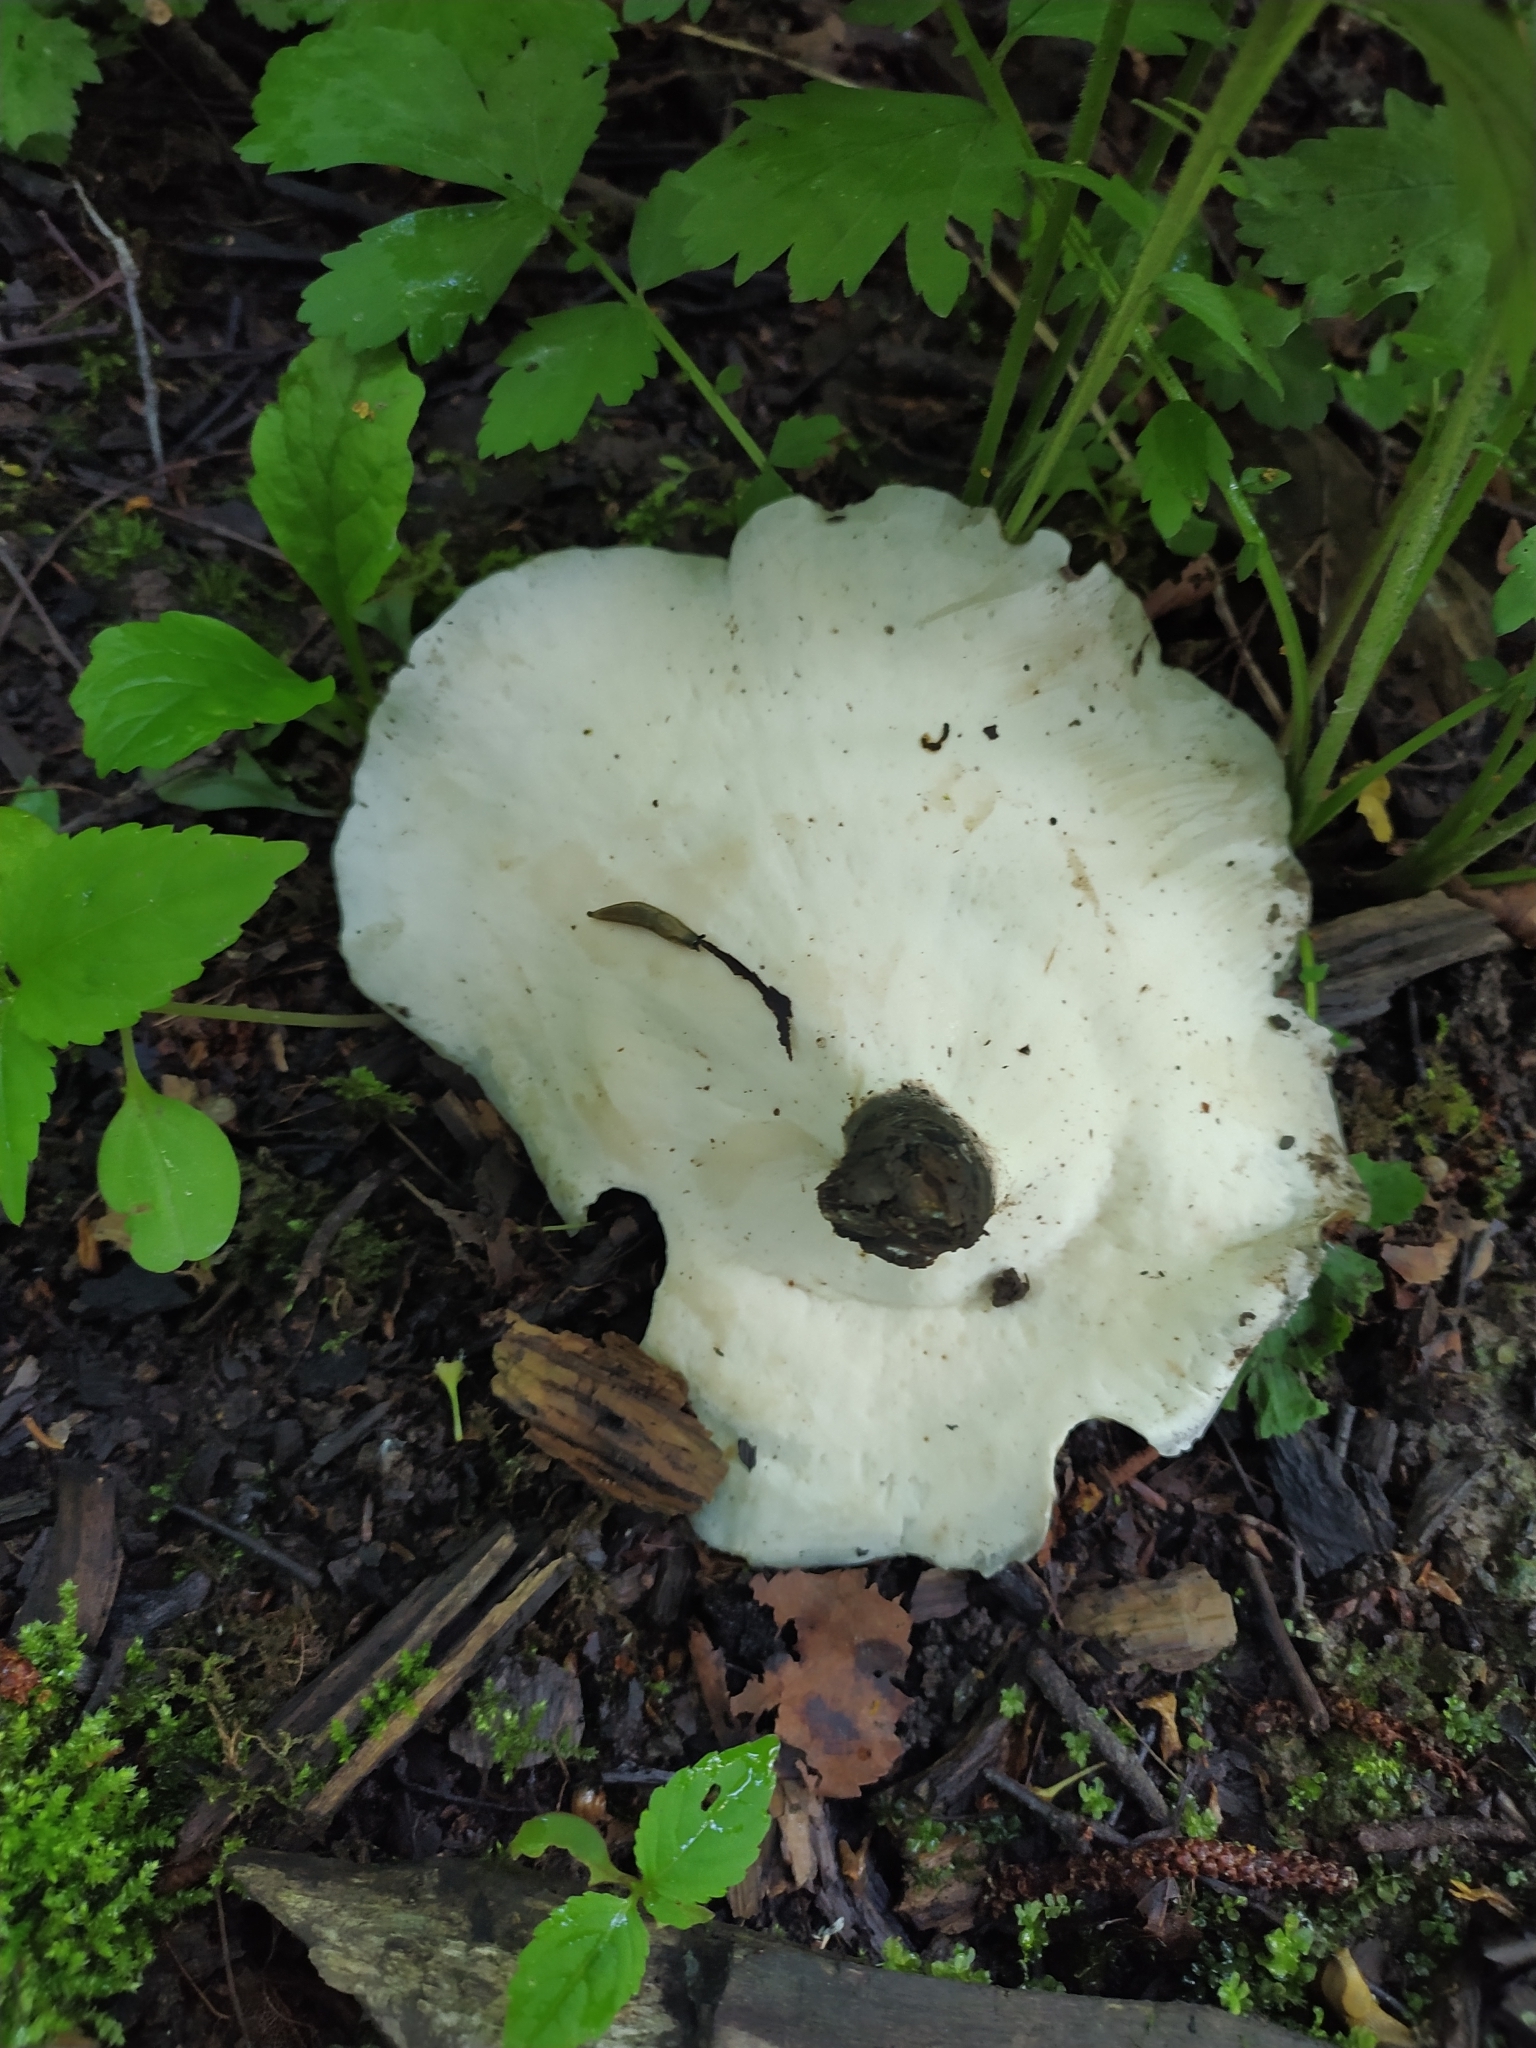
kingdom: Fungi
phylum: Basidiomycota
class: Agaricomycetes
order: Polyporales
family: Polyporaceae
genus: Picipes
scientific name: Picipes badius
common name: Bay polypore
